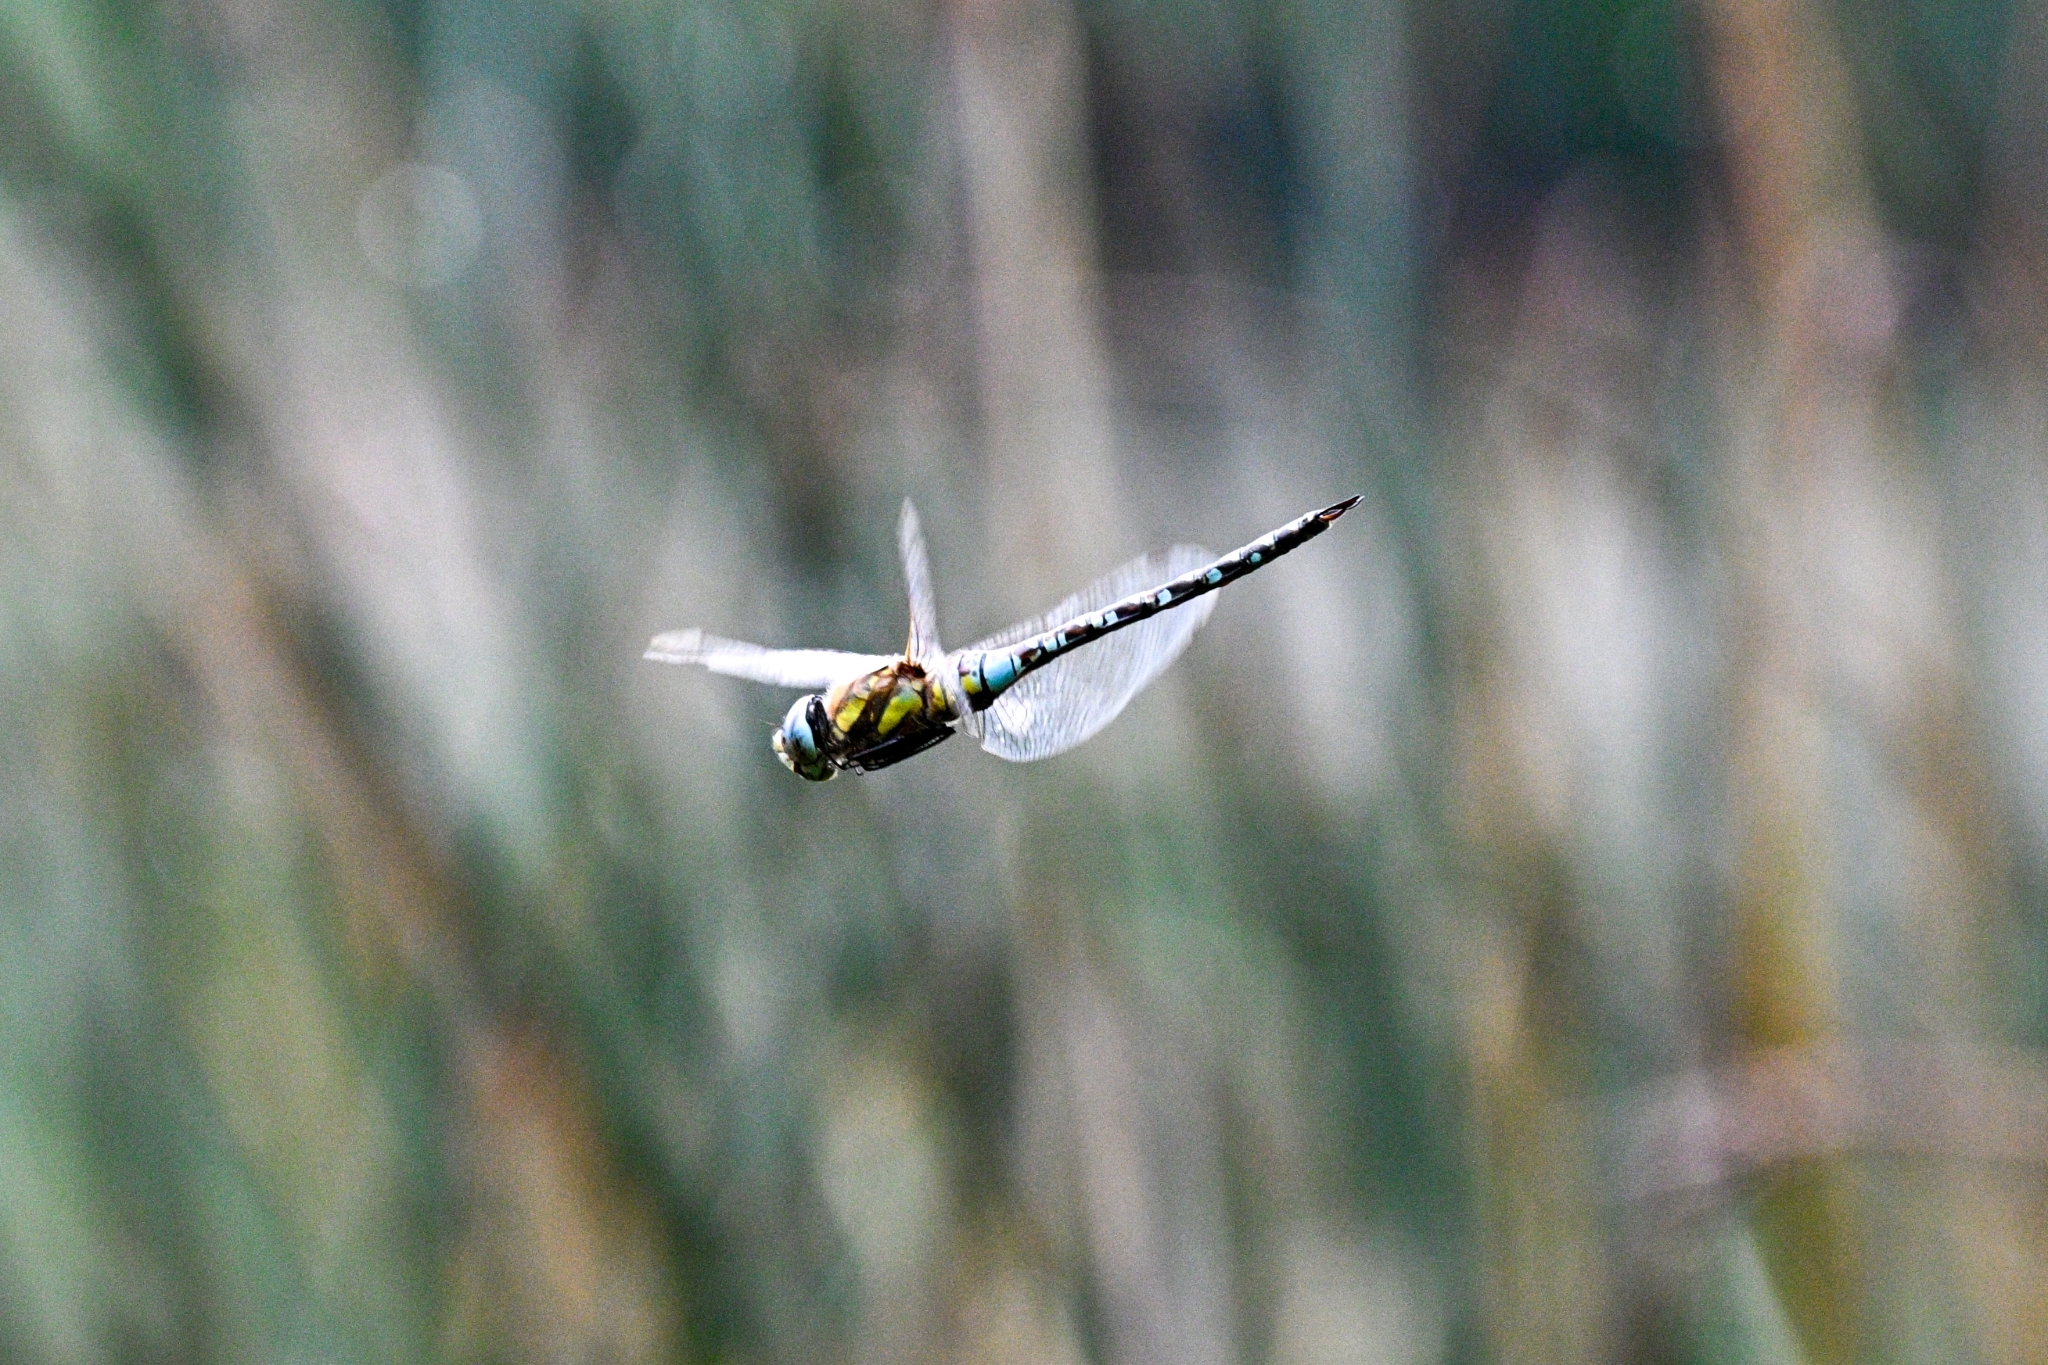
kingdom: Animalia
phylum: Arthropoda
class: Insecta
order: Odonata
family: Aeshnidae
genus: Aeshna
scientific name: Aeshna mixta
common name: Migrant hawker
